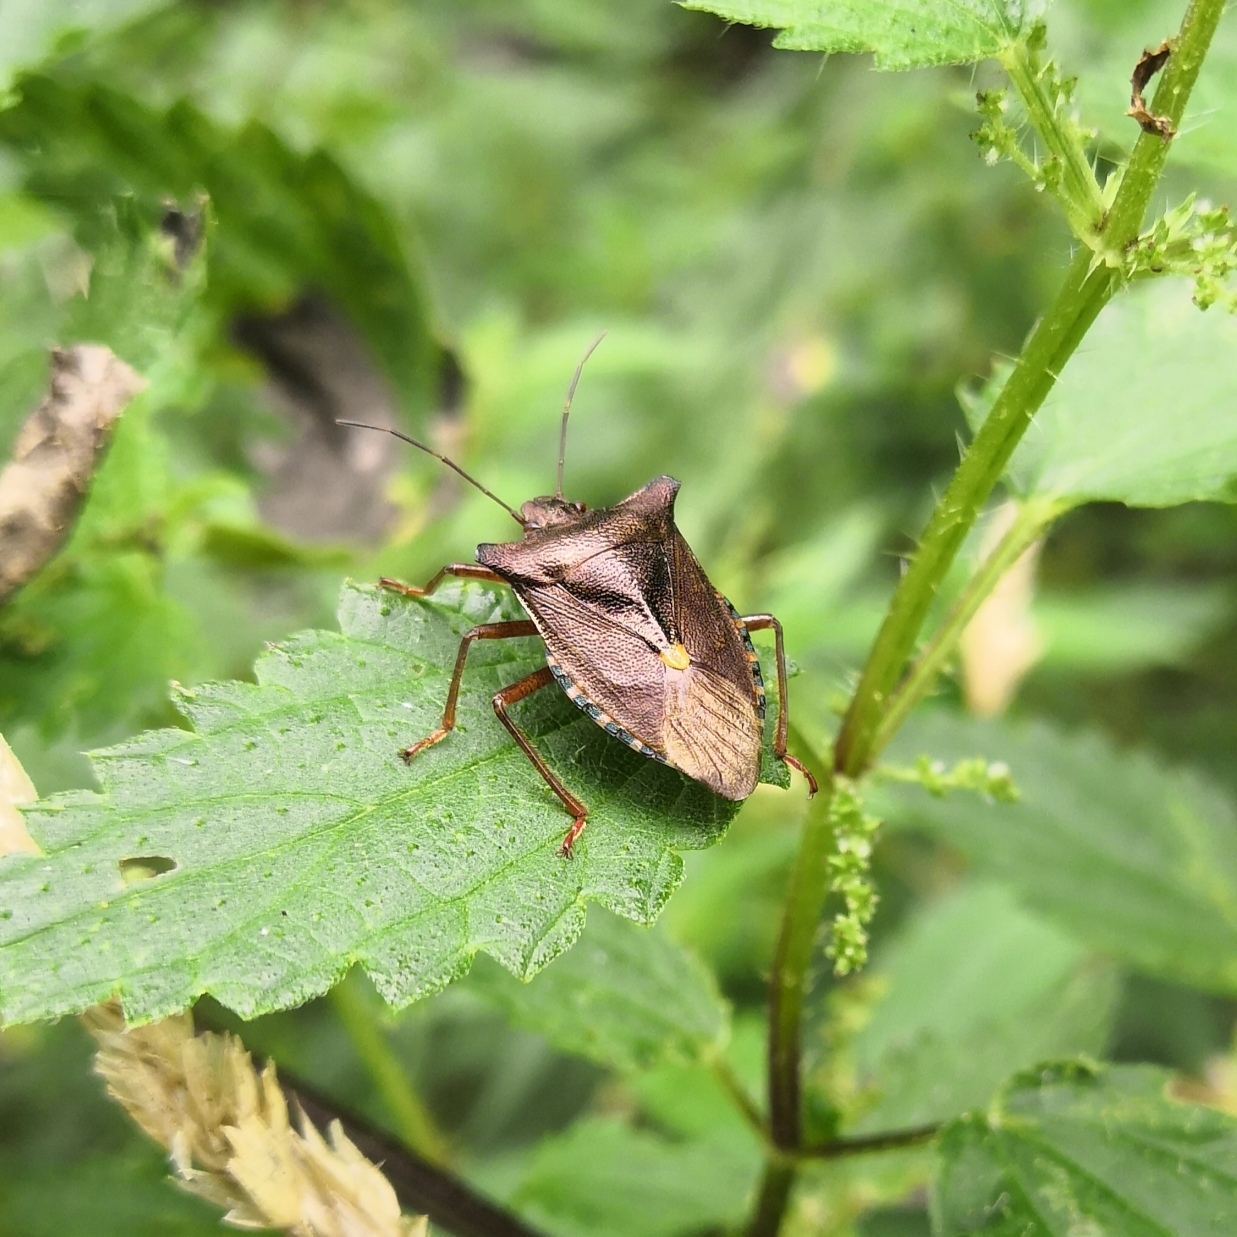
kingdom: Animalia
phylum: Arthropoda
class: Insecta
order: Hemiptera
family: Pentatomidae
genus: Pentatoma
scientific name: Pentatoma rufipes
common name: Forest bug
